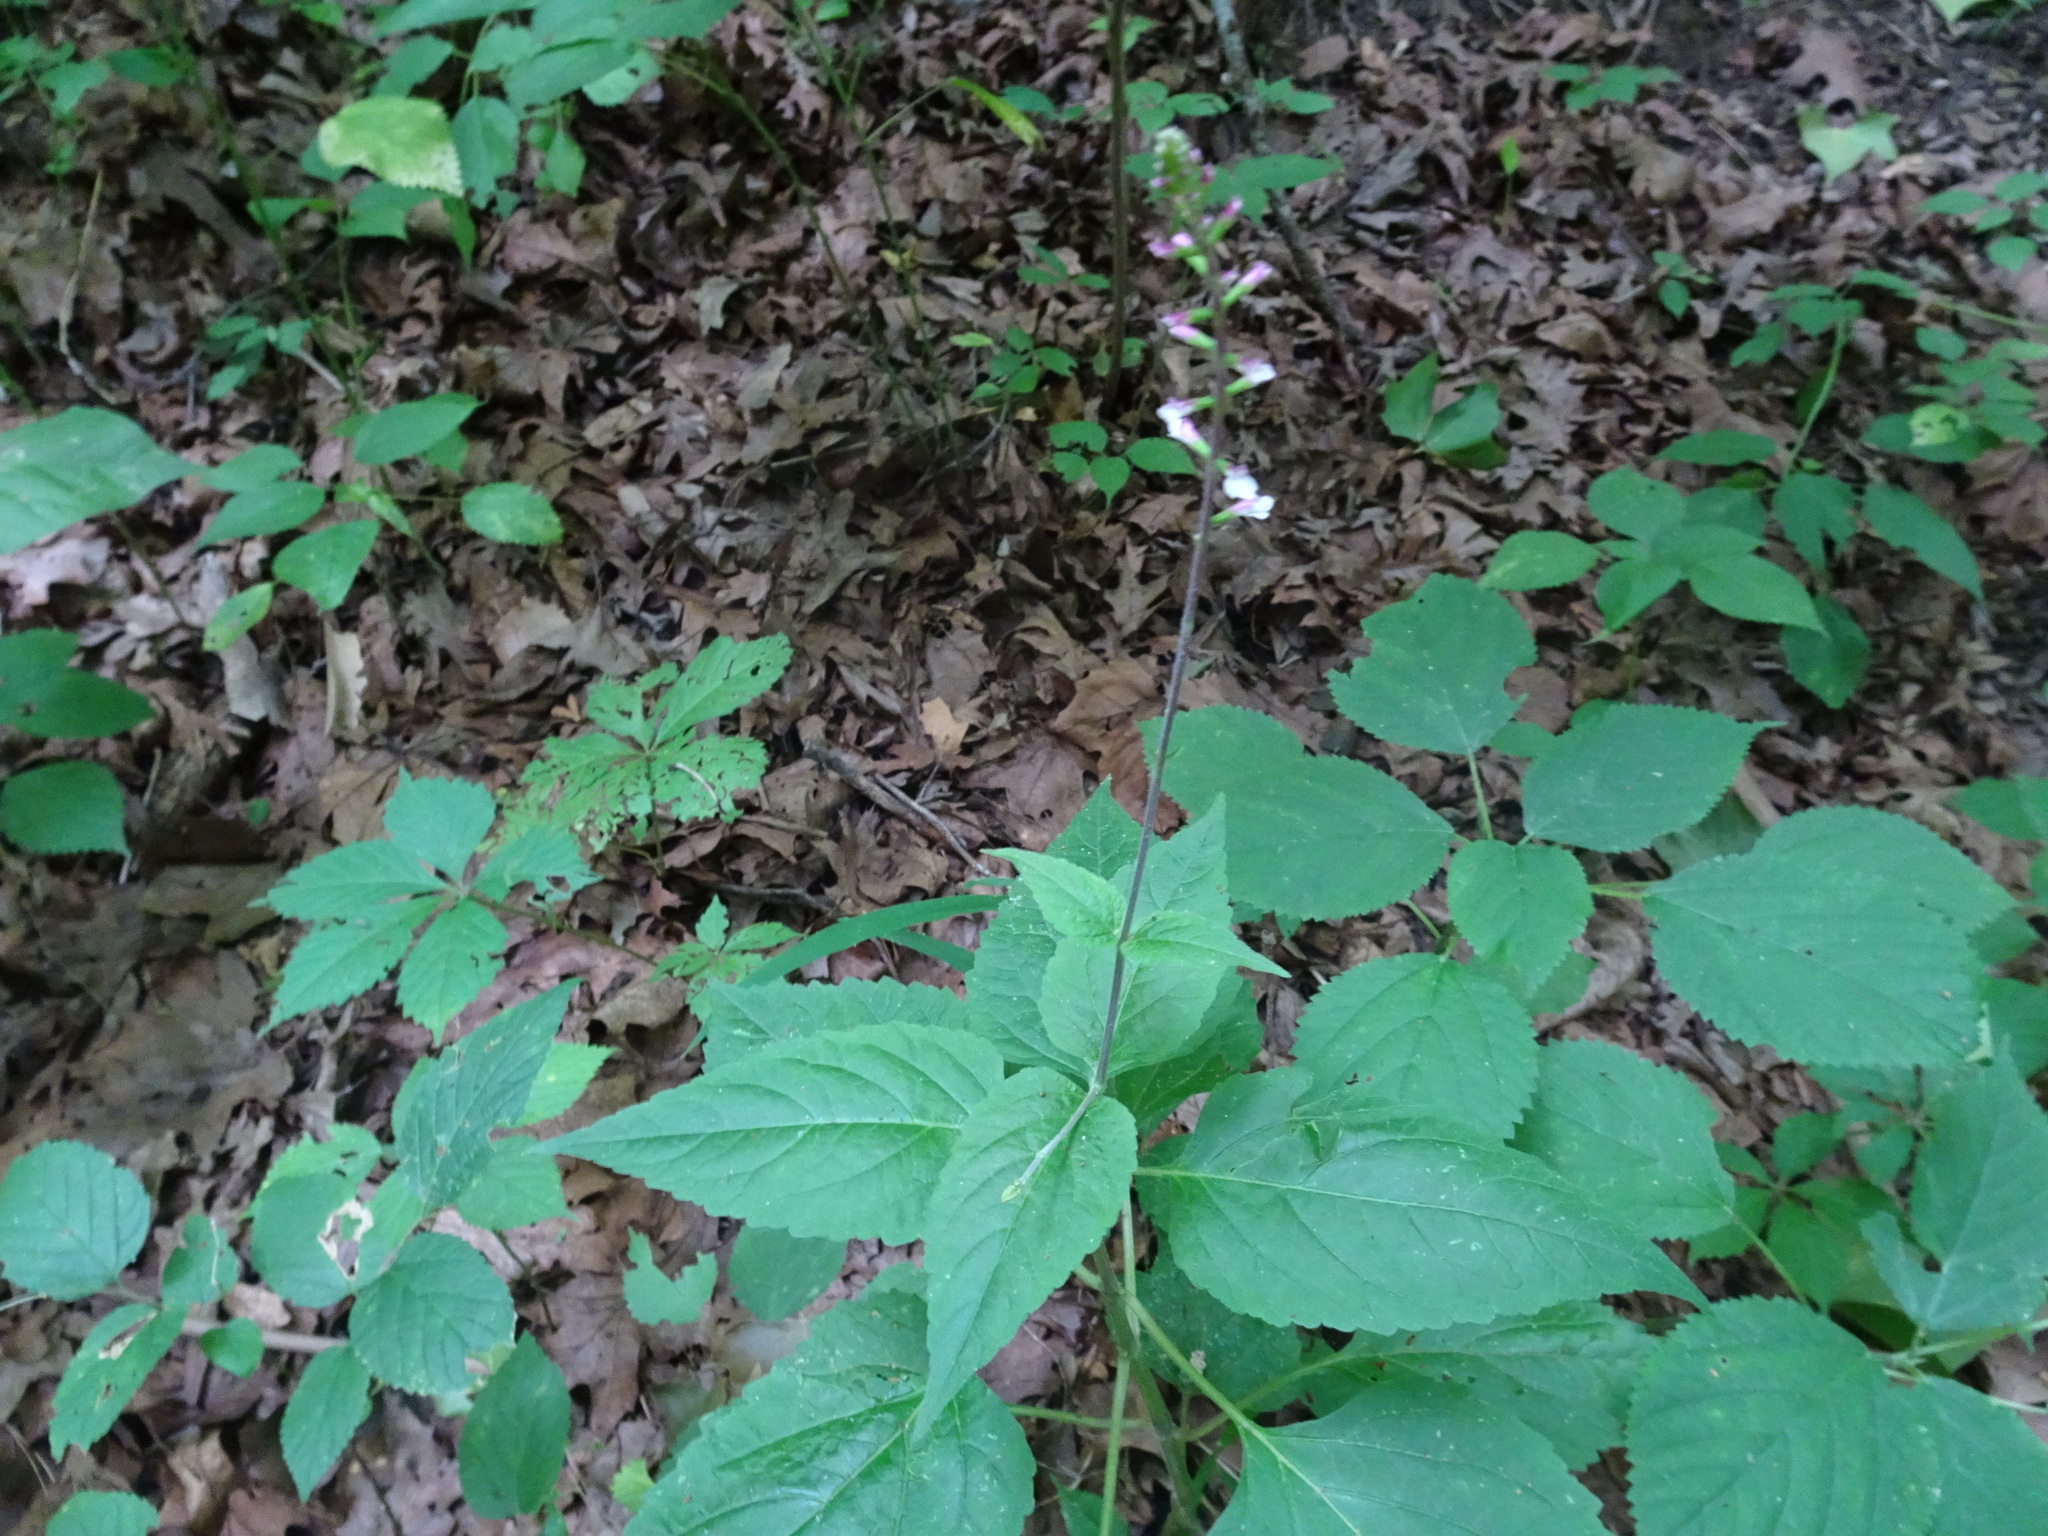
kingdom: Plantae
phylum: Tracheophyta
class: Magnoliopsida
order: Lamiales
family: Phrymaceae
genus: Phryma
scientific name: Phryma leptostachya
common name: American lopseed
